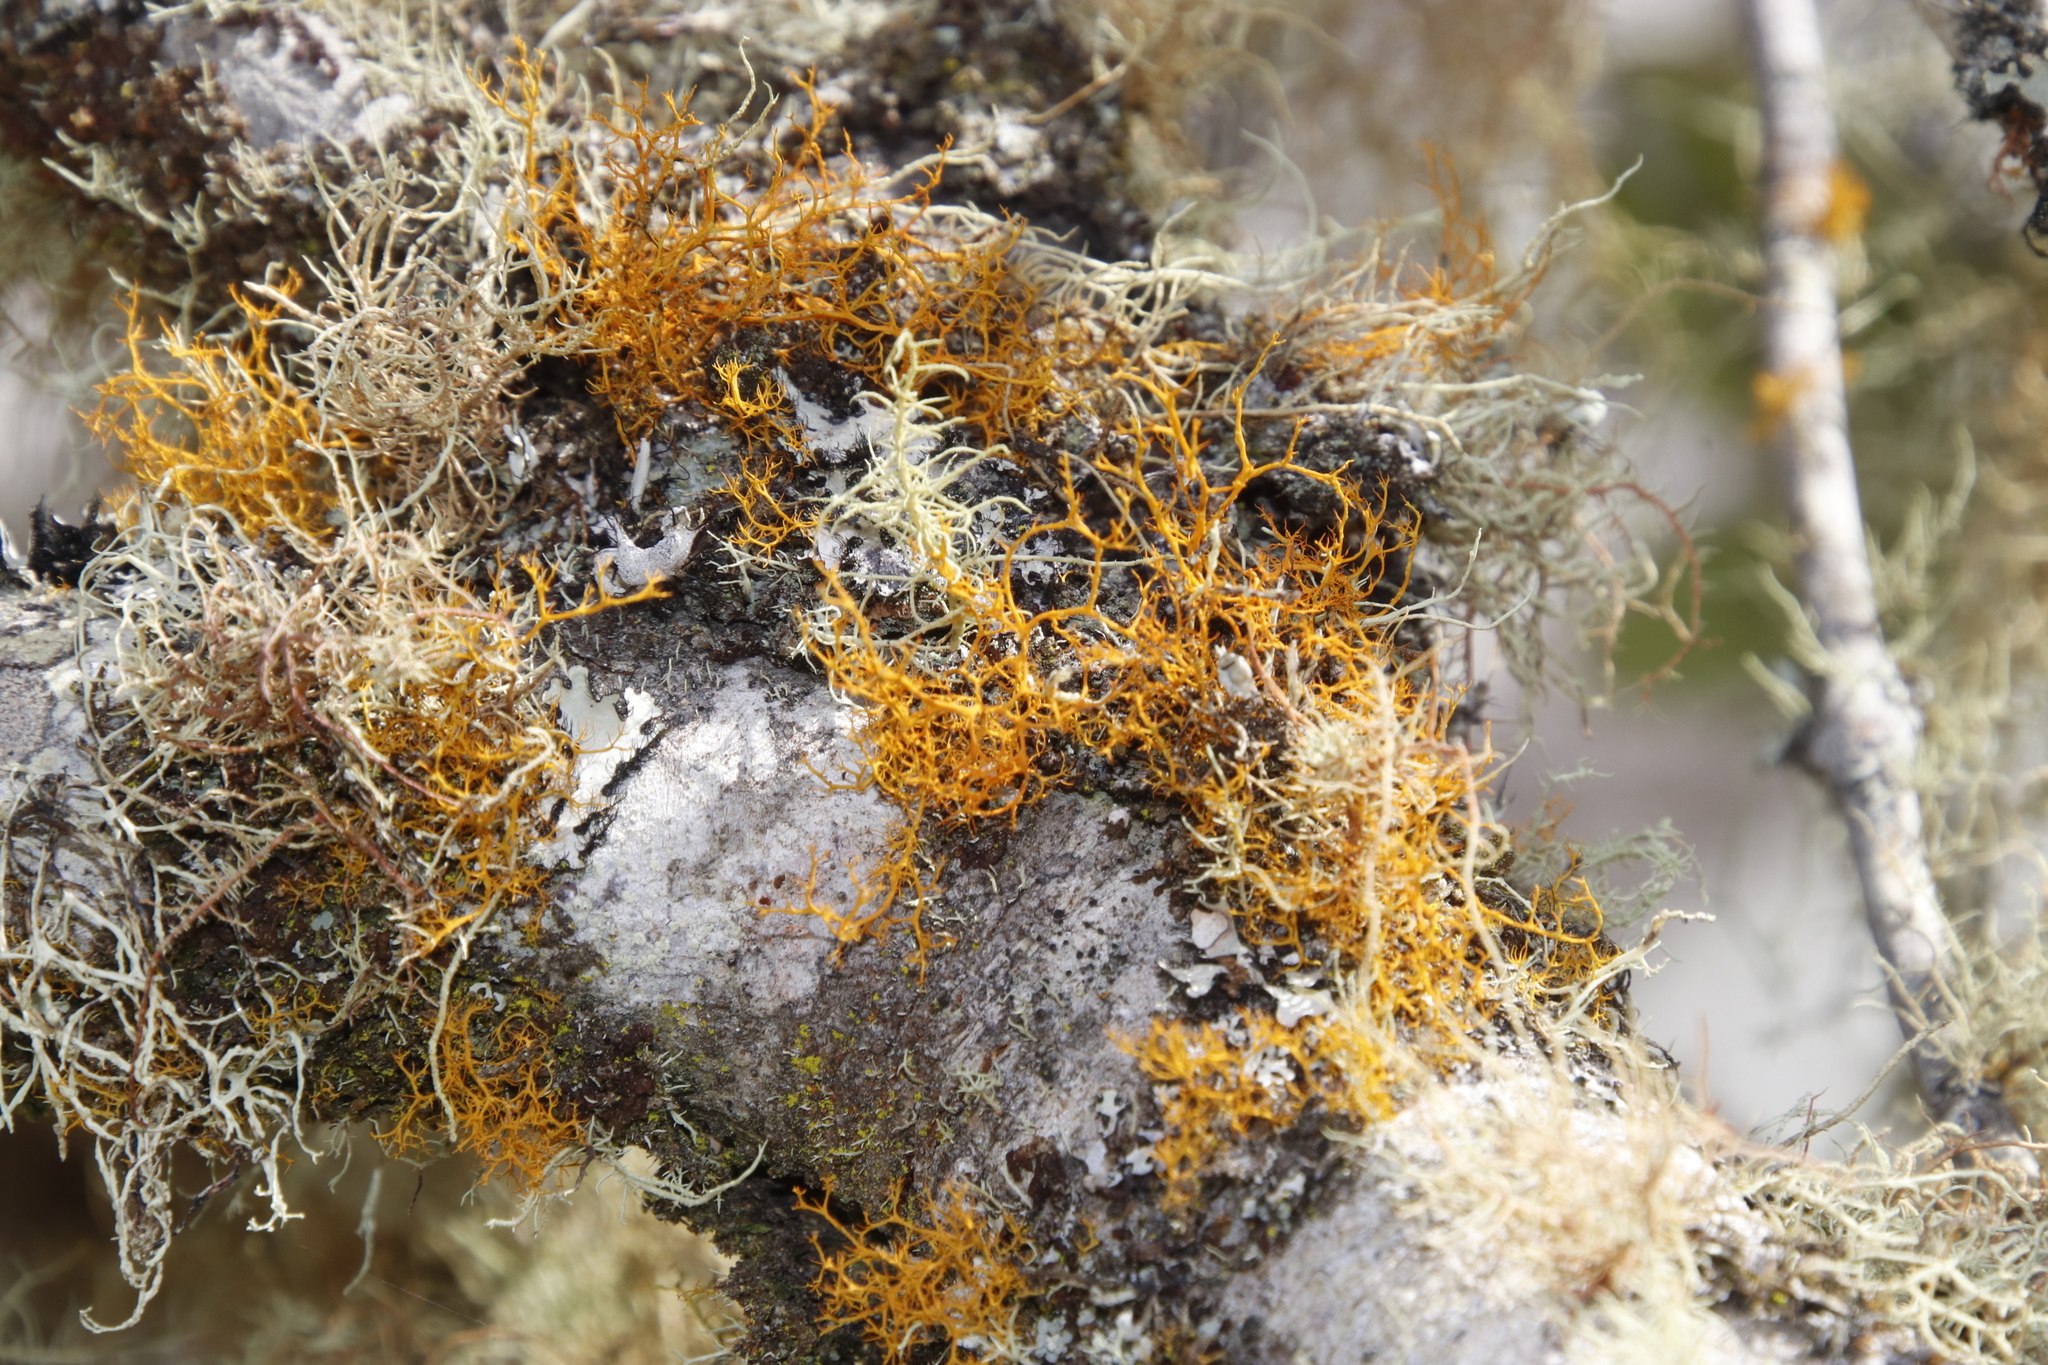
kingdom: Fungi
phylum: Ascomycota
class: Lecanoromycetes
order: Teloschistales
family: Teloschistaceae
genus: Teloschistes
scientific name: Teloschistes flavicans
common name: Golden hair-lichen
